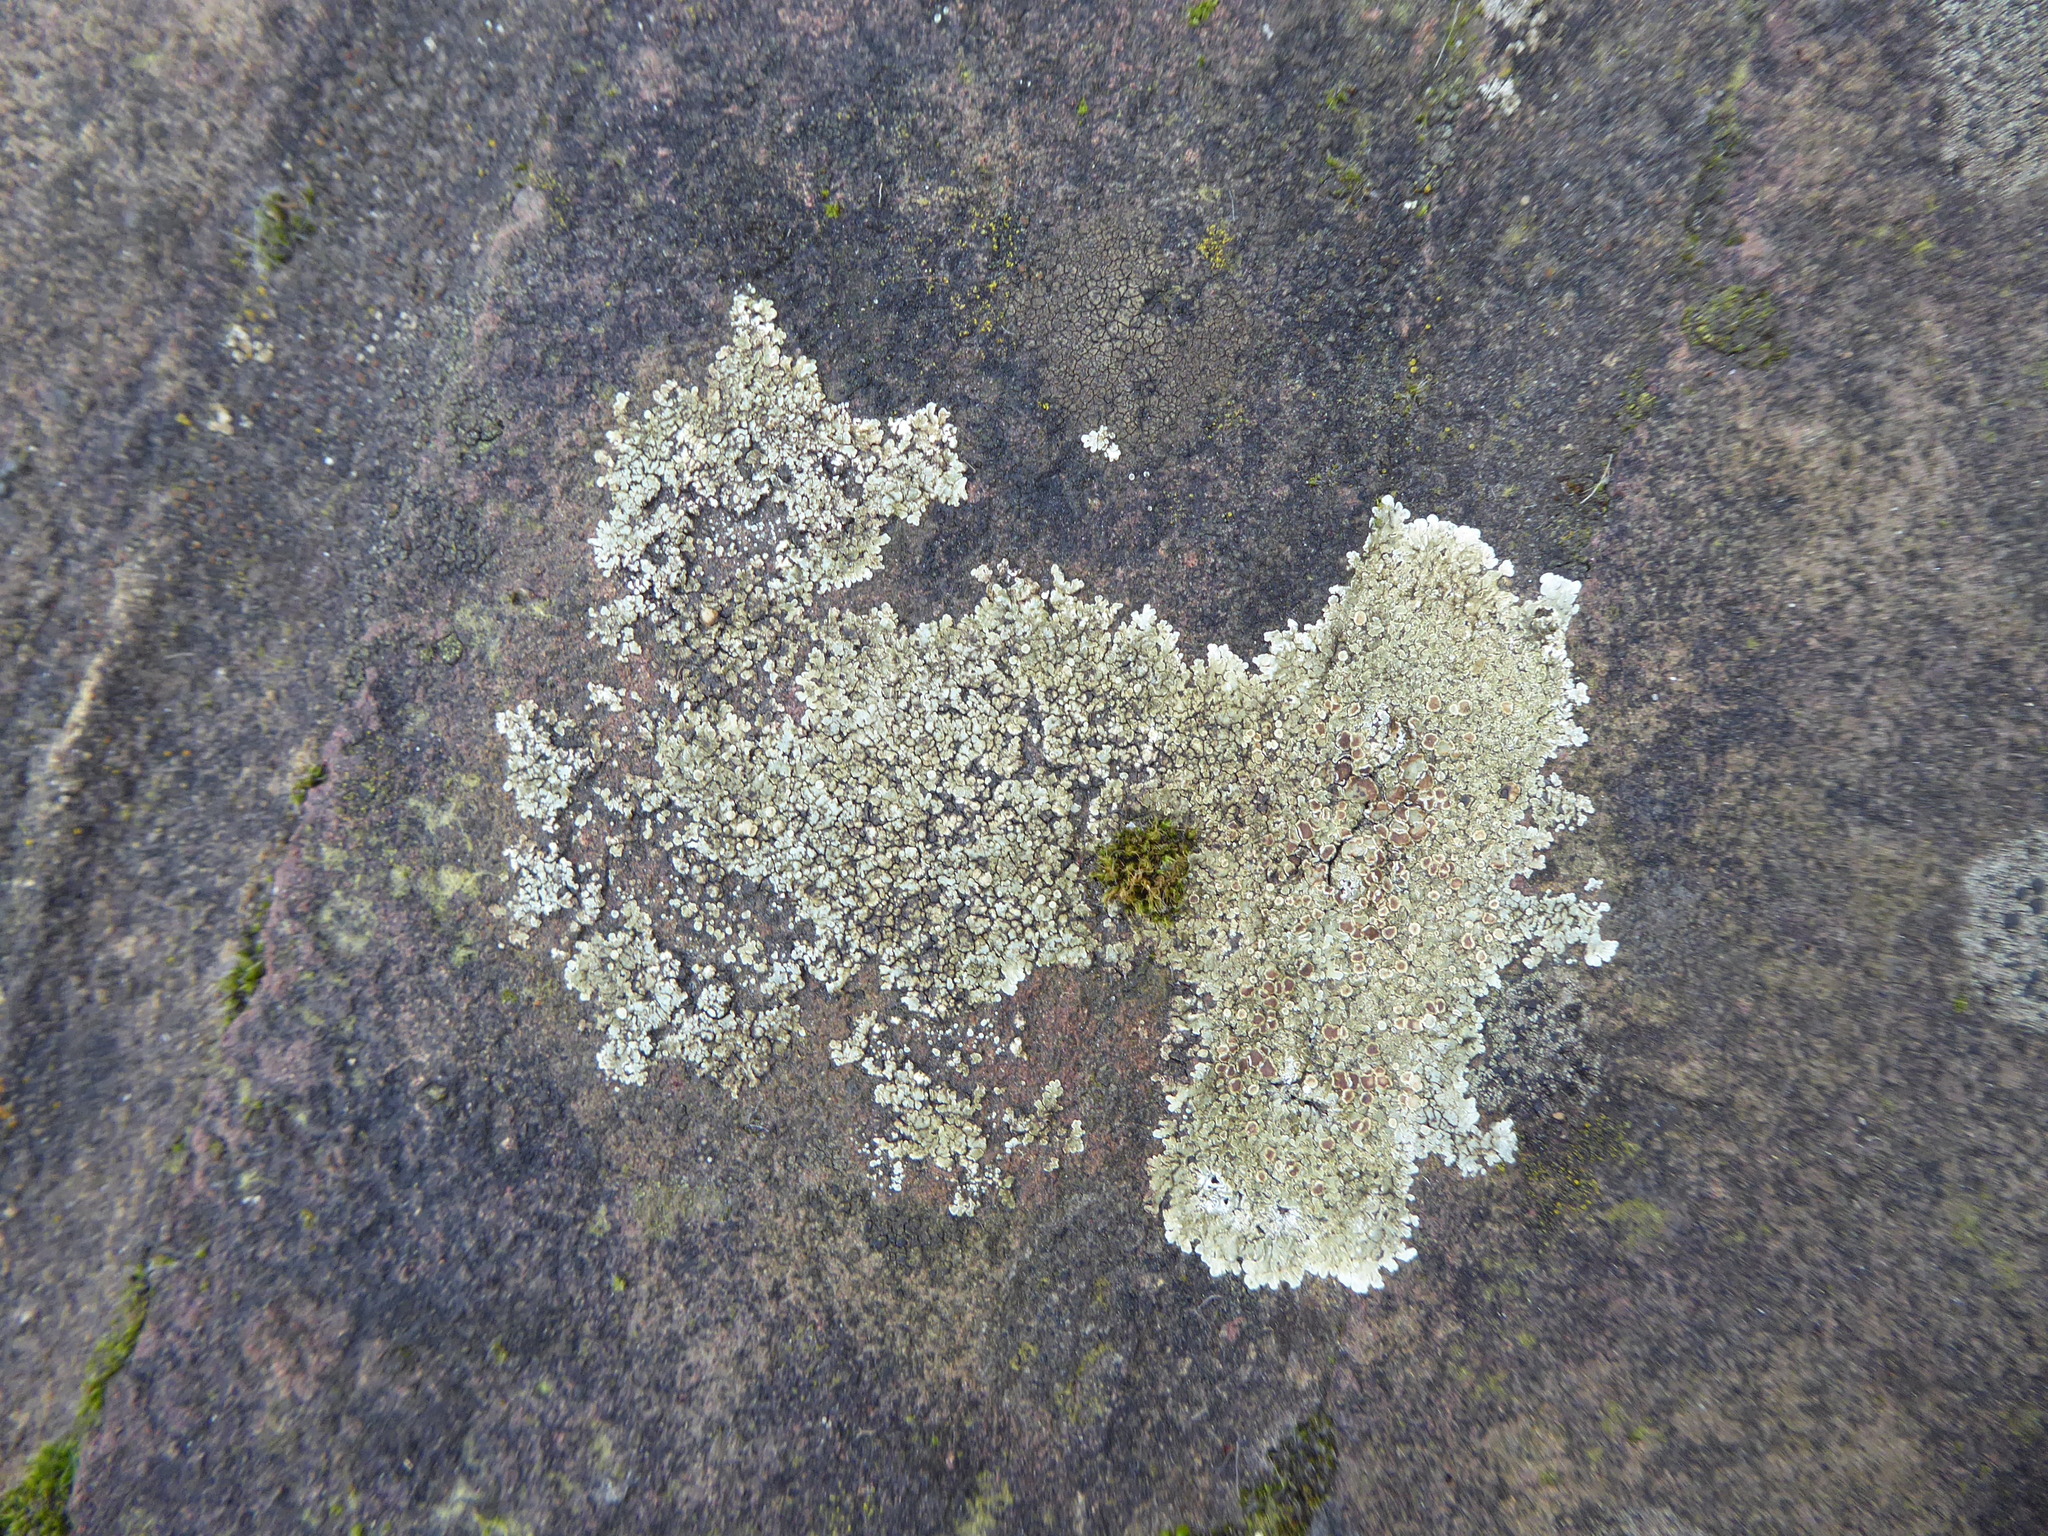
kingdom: Fungi
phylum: Ascomycota
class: Lecanoromycetes
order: Lecanorales
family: Lecanoraceae
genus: Protoparmeliopsis
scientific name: Protoparmeliopsis muralis
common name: Stonewall rim lichen
